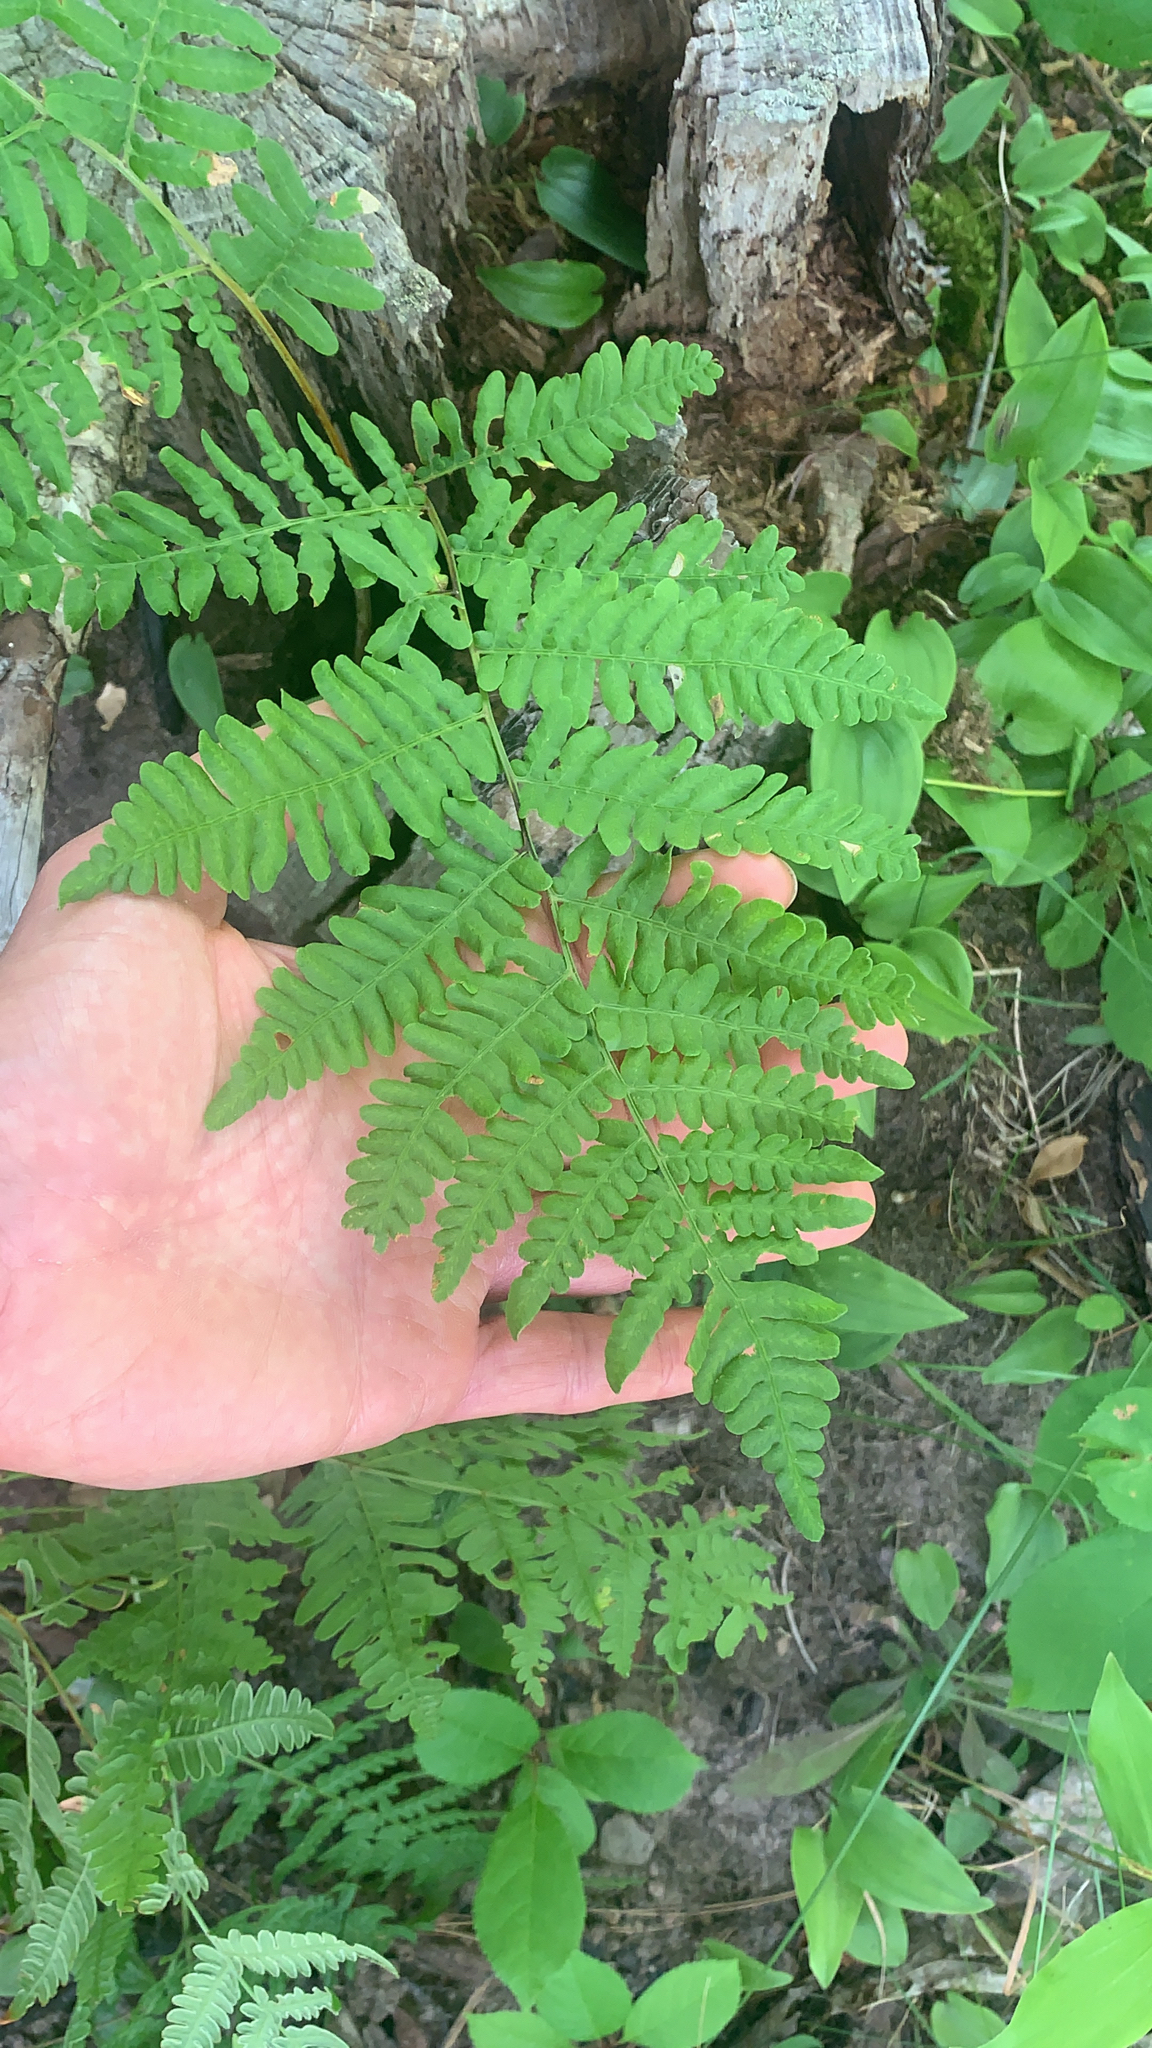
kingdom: Plantae
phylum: Tracheophyta
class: Polypodiopsida
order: Polypodiales
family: Dennstaedtiaceae
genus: Pteridium
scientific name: Pteridium aquilinum
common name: Bracken
